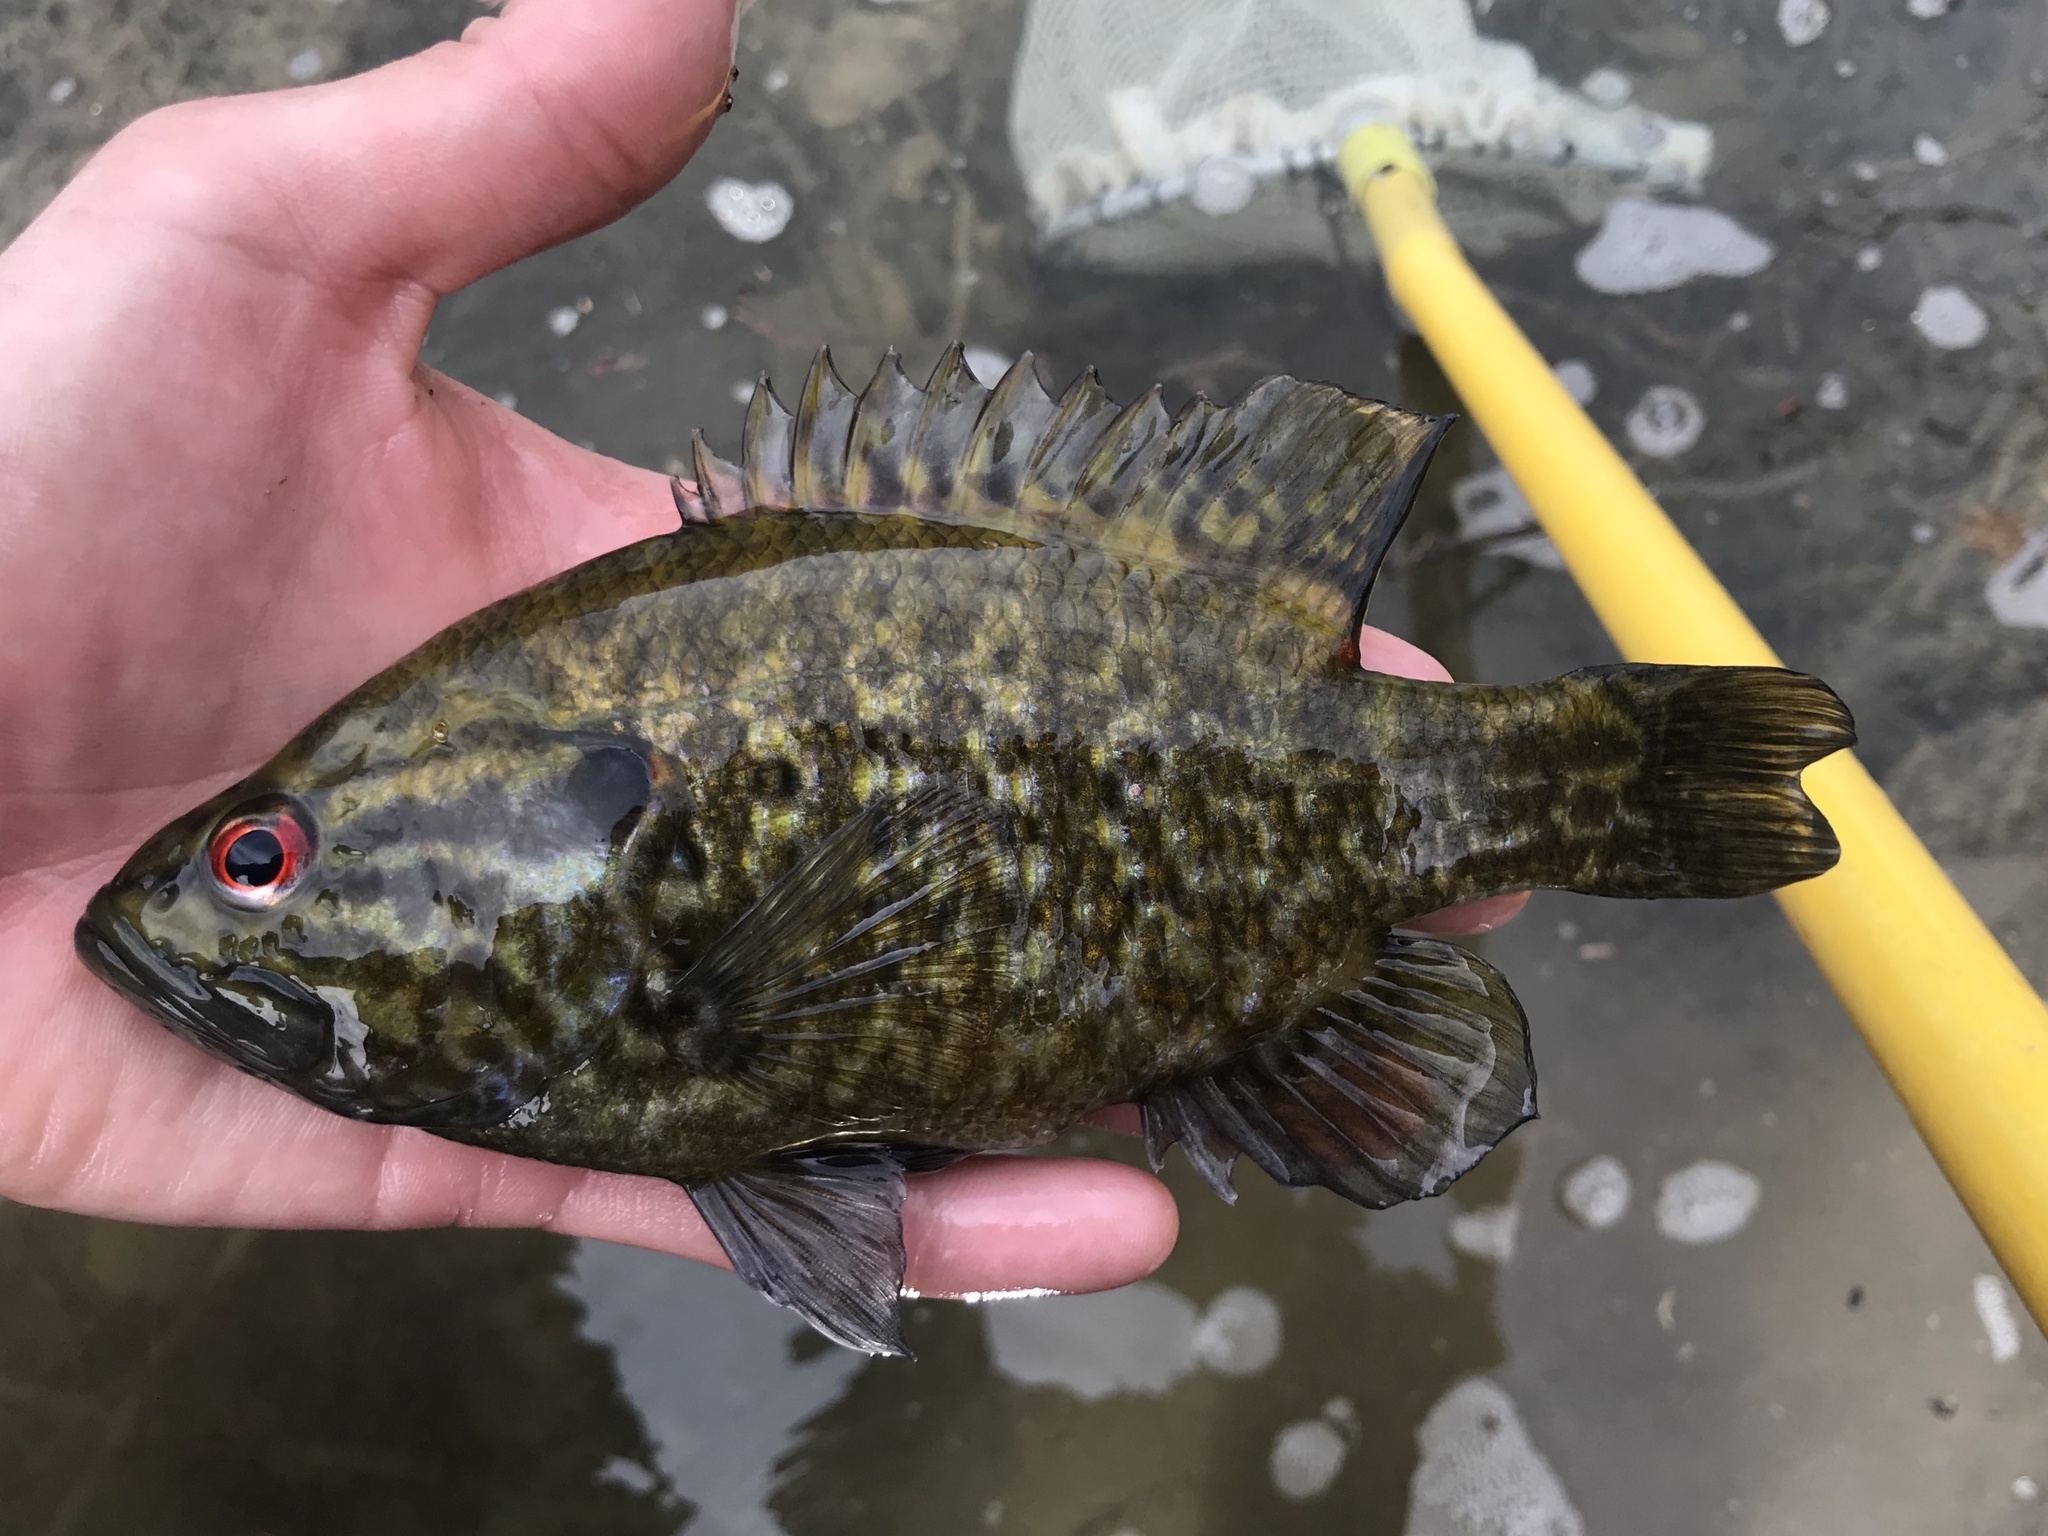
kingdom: Animalia
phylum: Chordata
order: Perciformes
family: Centrarchidae
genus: Lepomis
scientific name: Lepomis gulosus
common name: Warmouth
